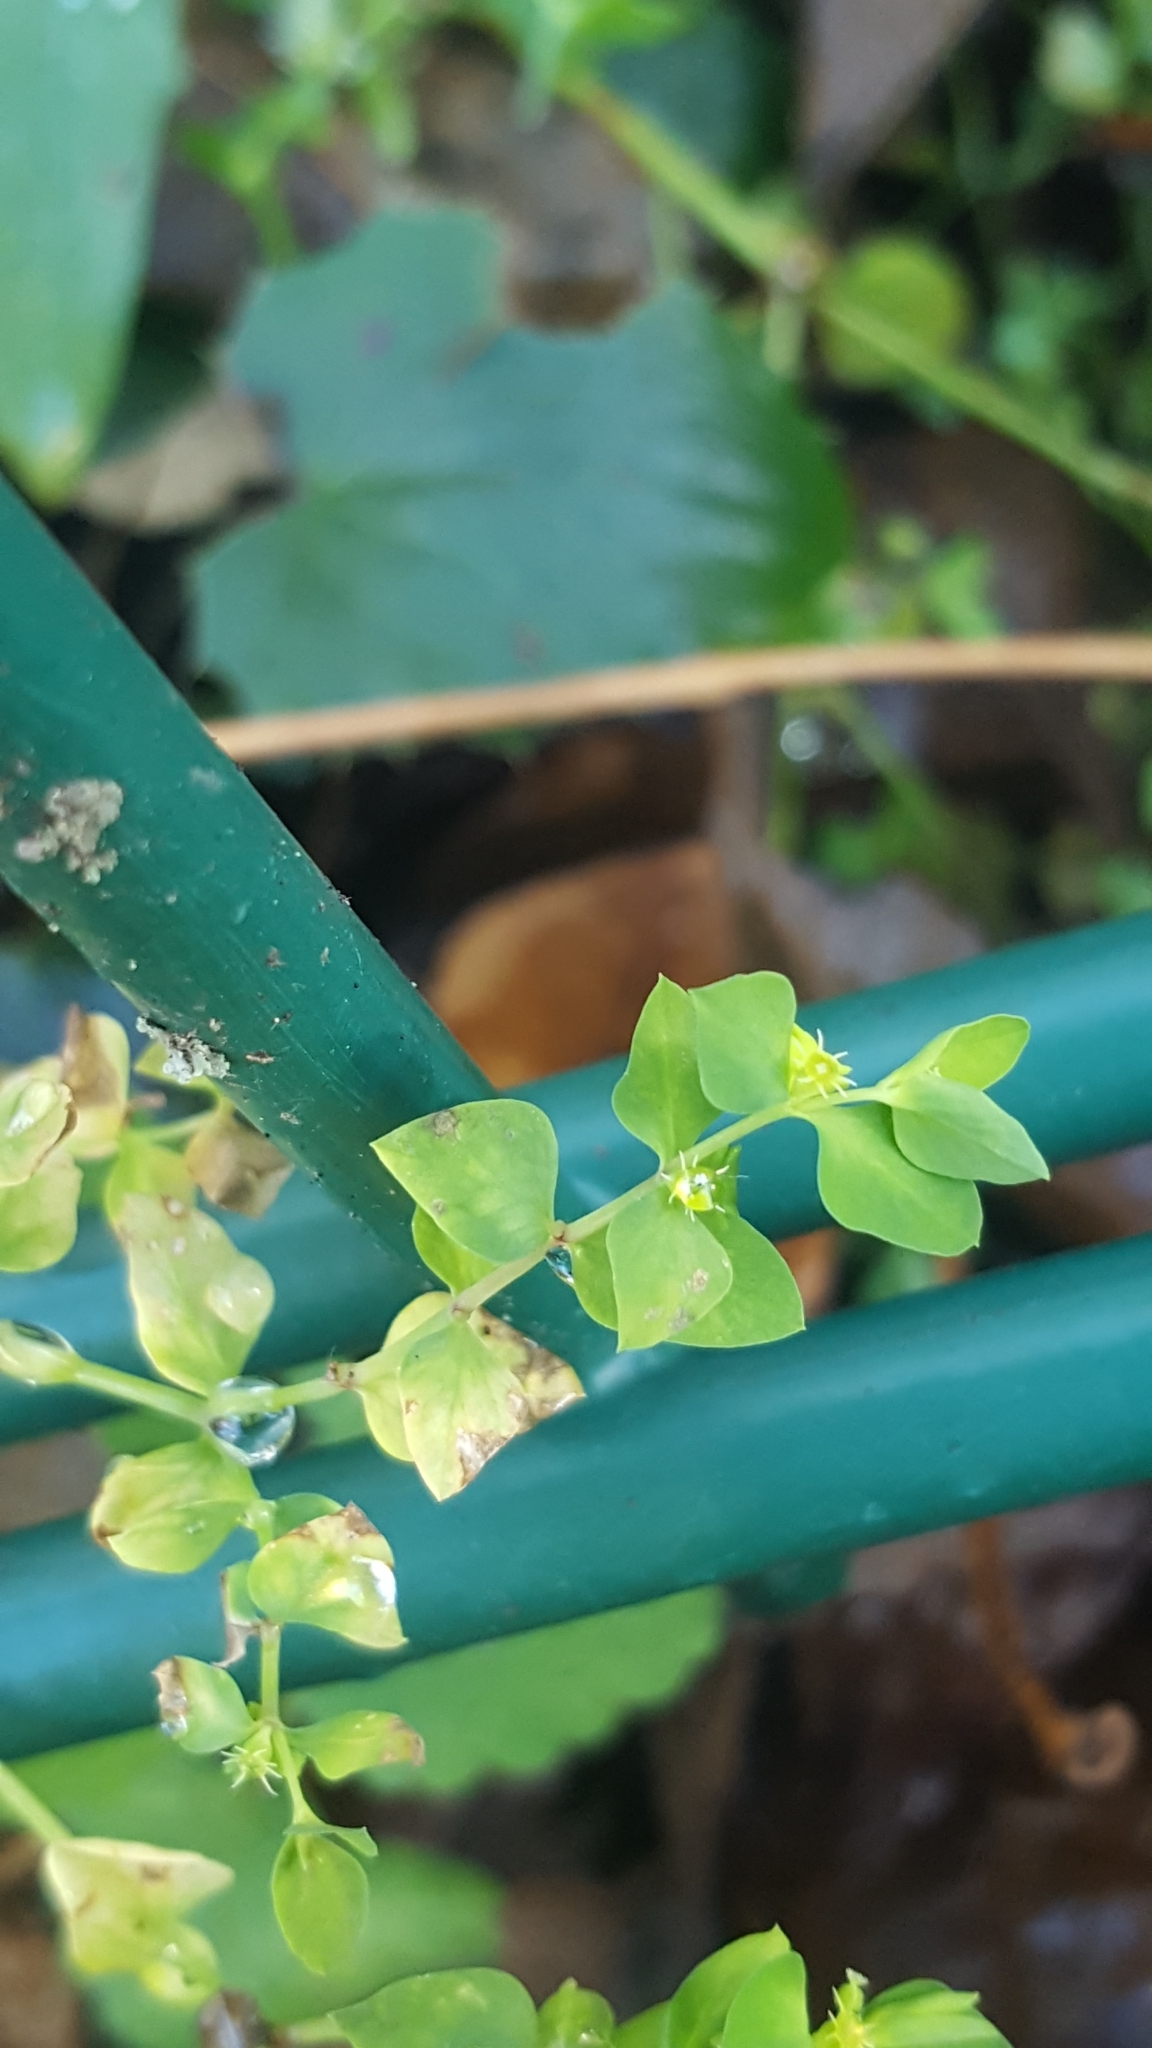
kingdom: Plantae
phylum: Tracheophyta
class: Magnoliopsida
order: Malpighiales
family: Euphorbiaceae
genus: Euphorbia
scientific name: Euphorbia peplus
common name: Petty spurge
